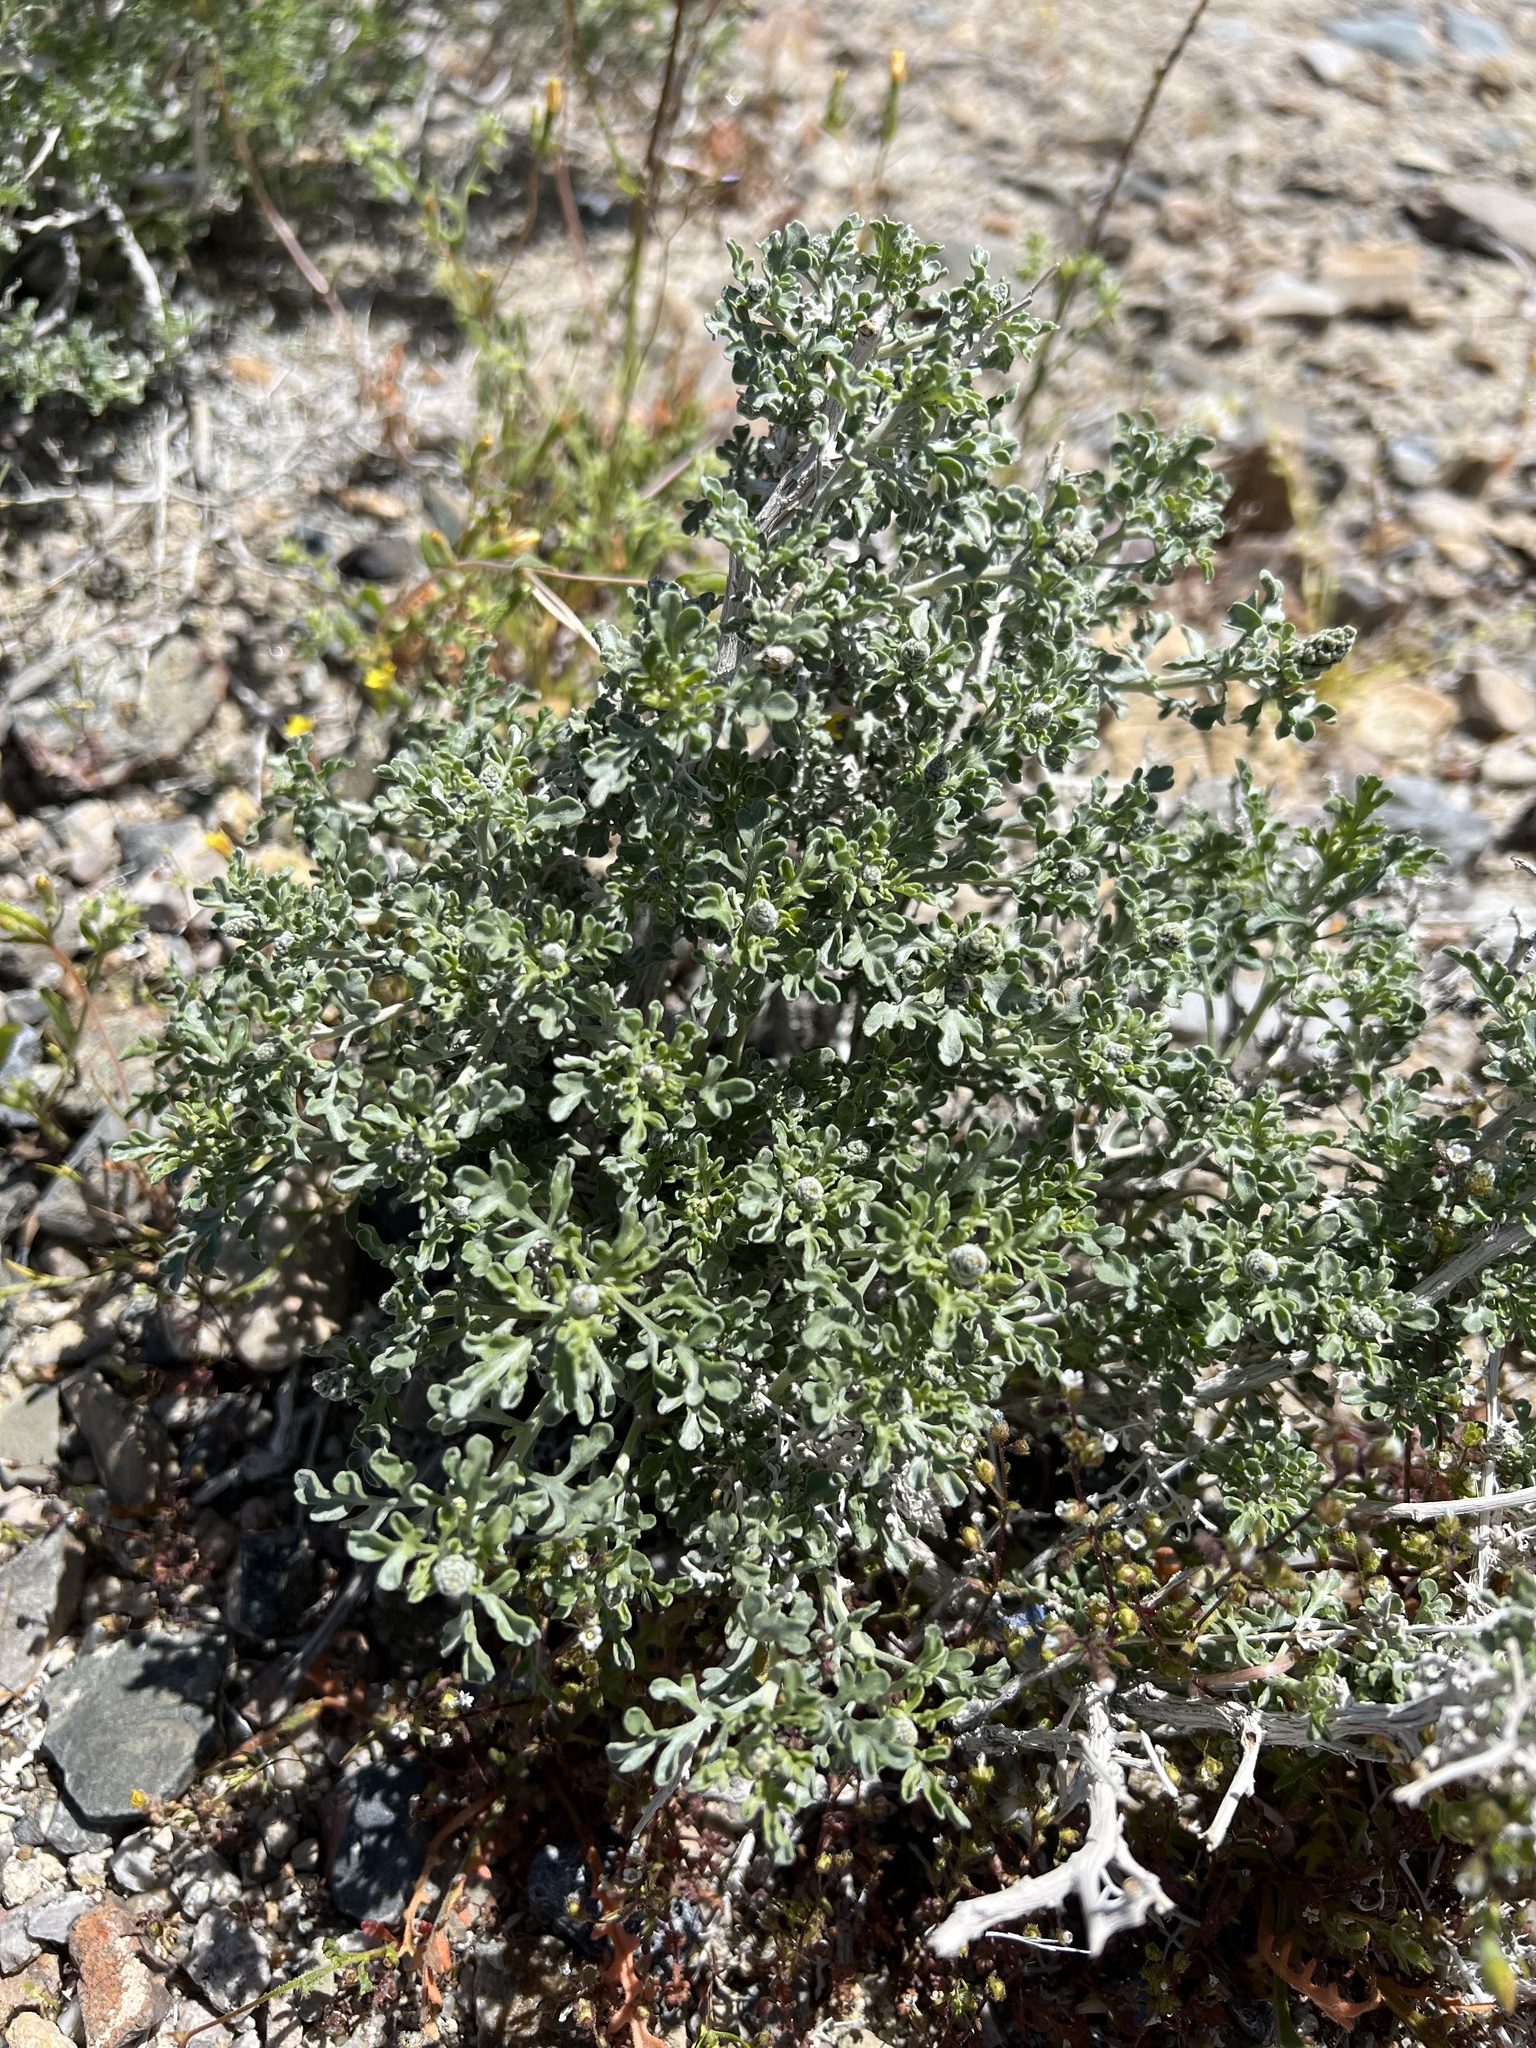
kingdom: Plantae
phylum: Tracheophyta
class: Magnoliopsida
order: Asterales
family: Asteraceae
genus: Ambrosia
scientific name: Ambrosia dumosa
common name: Bur-sage
